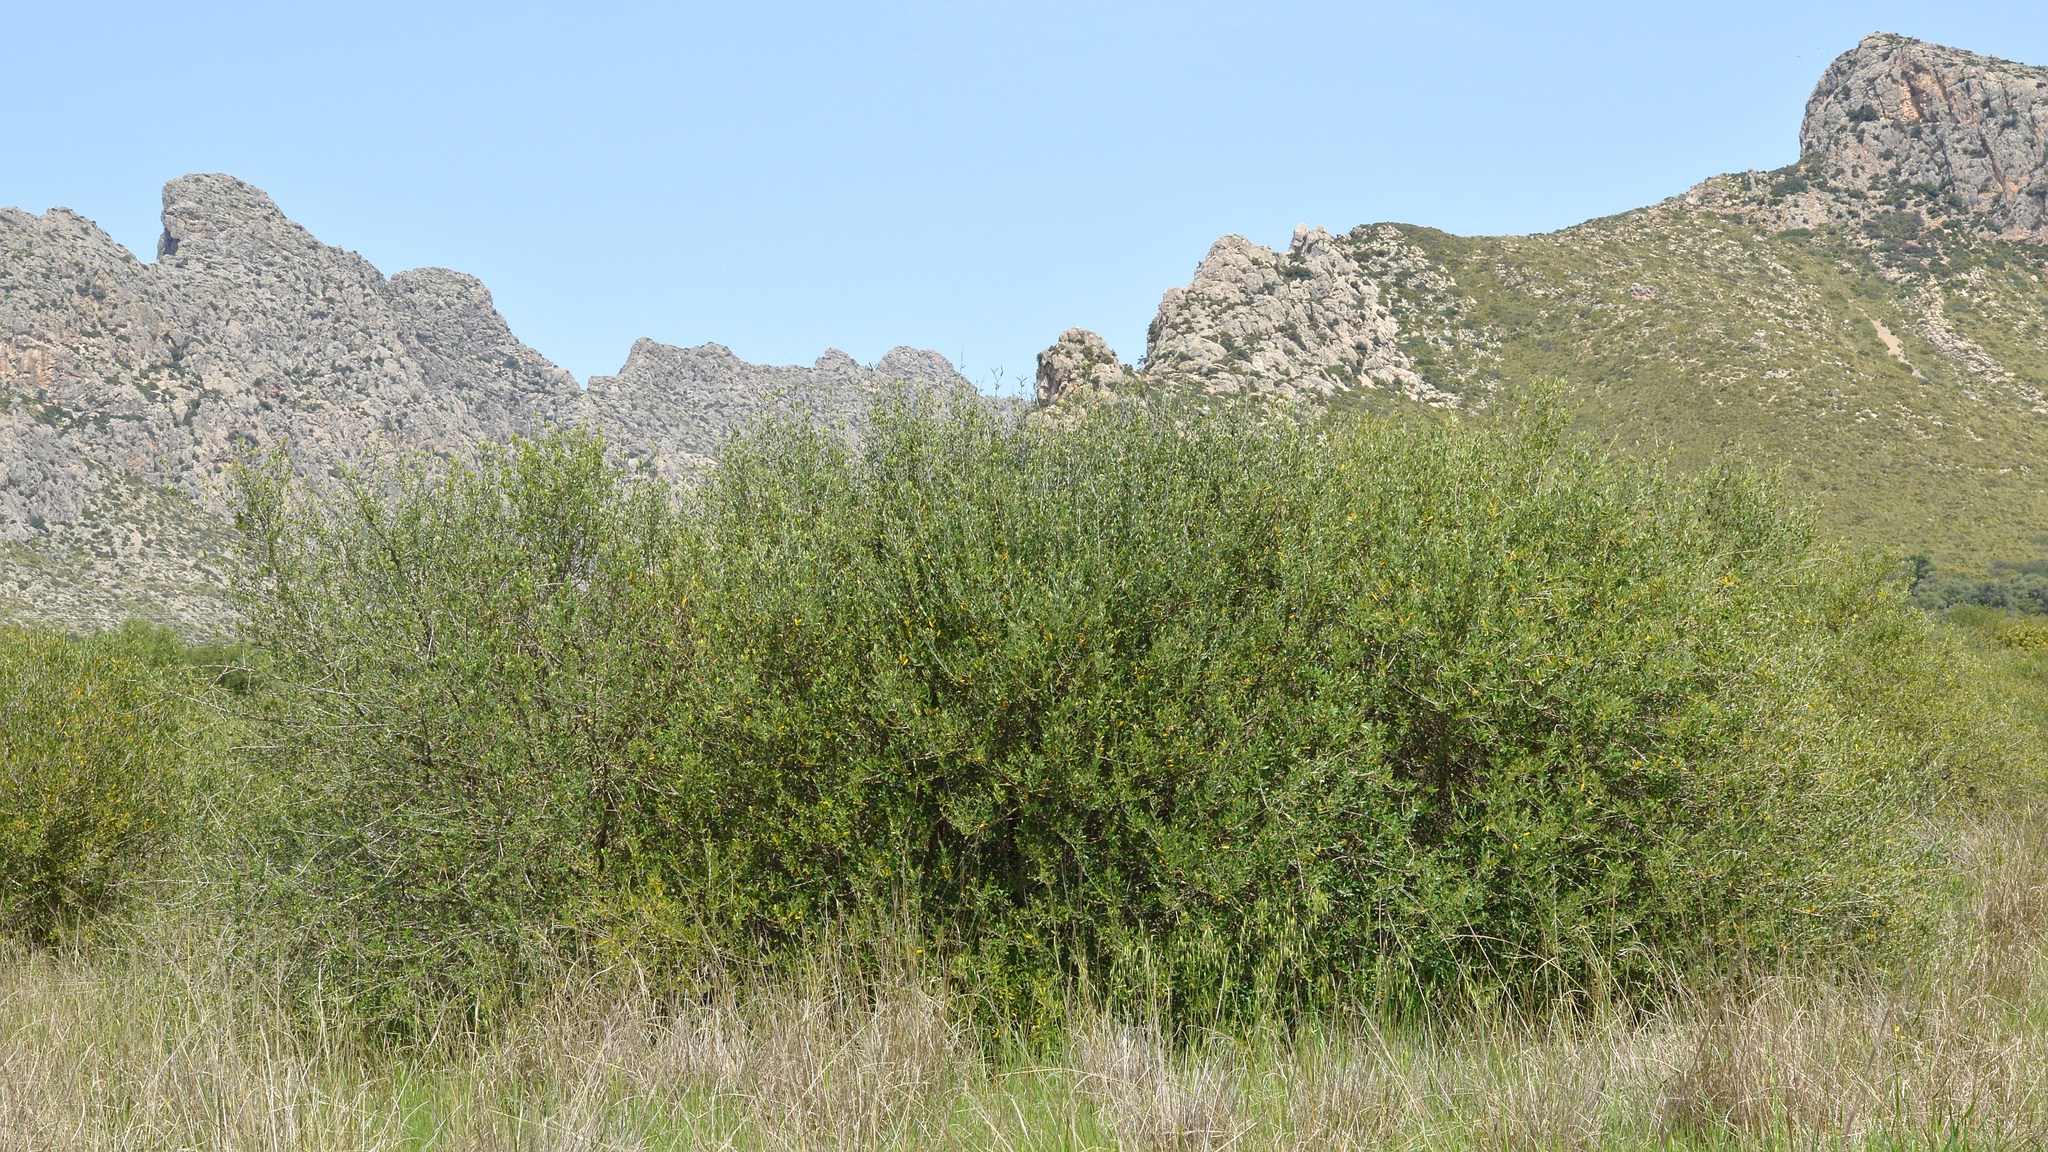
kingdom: Plantae
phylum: Tracheophyta
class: Magnoliopsida
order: Lamiales
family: Oleaceae
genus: Olea
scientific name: Olea europaea
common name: Olive
